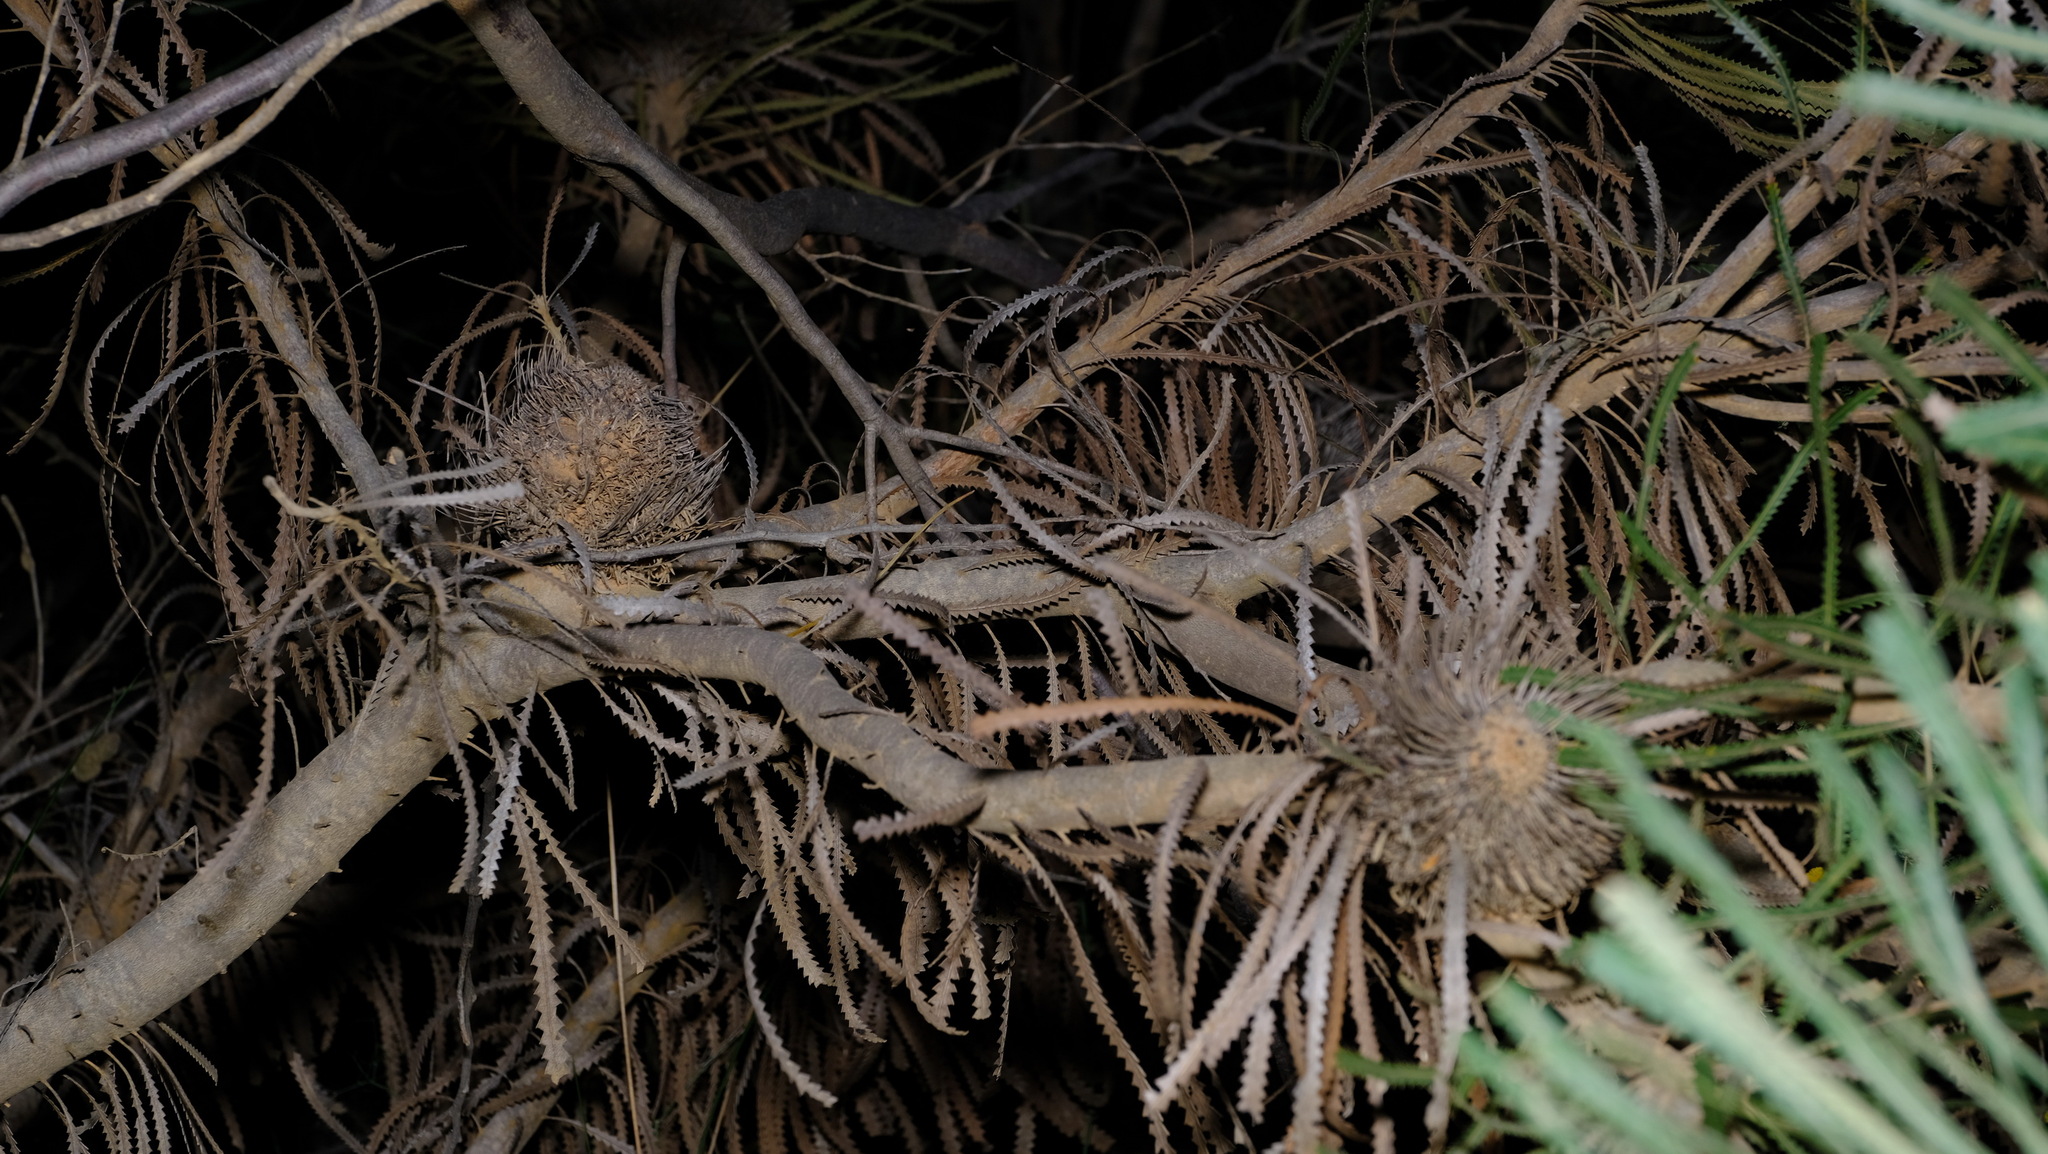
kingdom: Plantae
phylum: Tracheophyta
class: Magnoliopsida
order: Proteales
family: Proteaceae
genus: Banksia
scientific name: Banksia hookeriana
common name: Hooker's banksia
